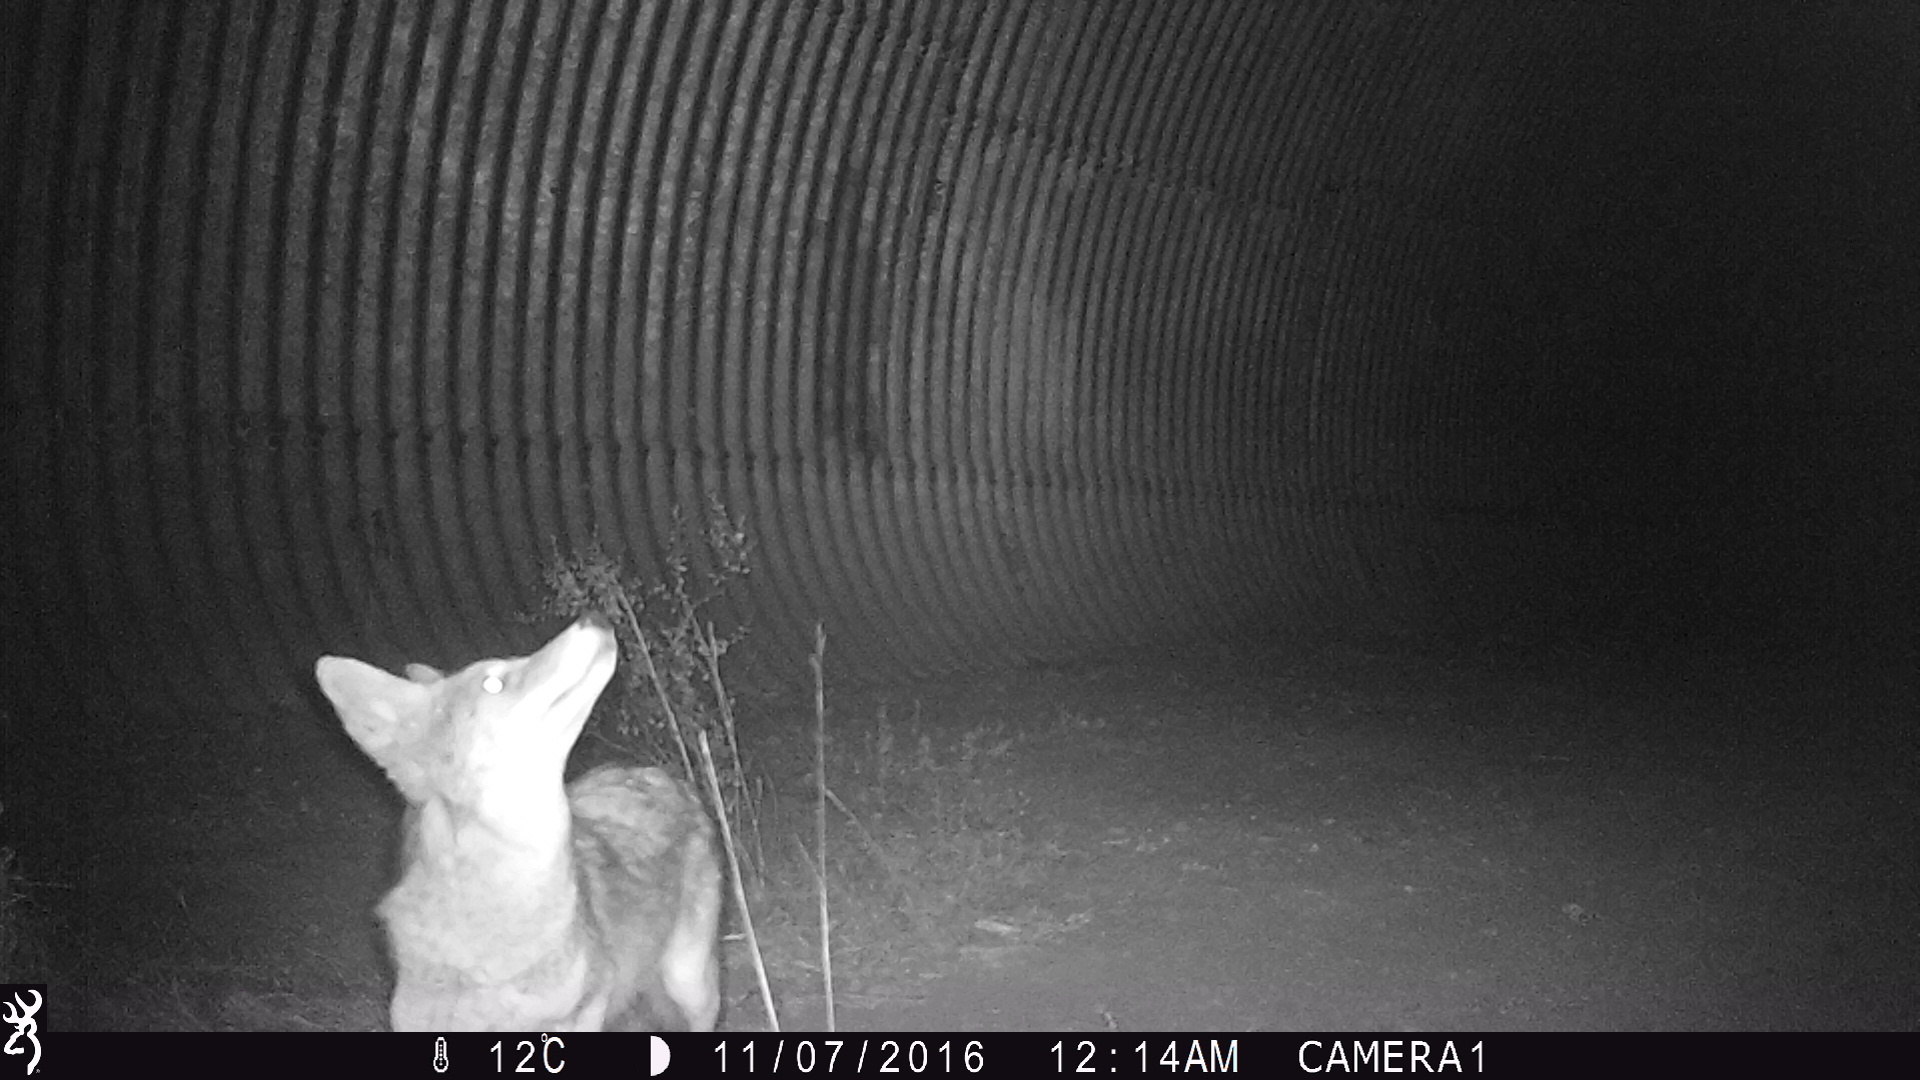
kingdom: Animalia
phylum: Chordata
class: Mammalia
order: Carnivora
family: Canidae
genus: Canis
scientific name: Canis latrans
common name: Coyote
